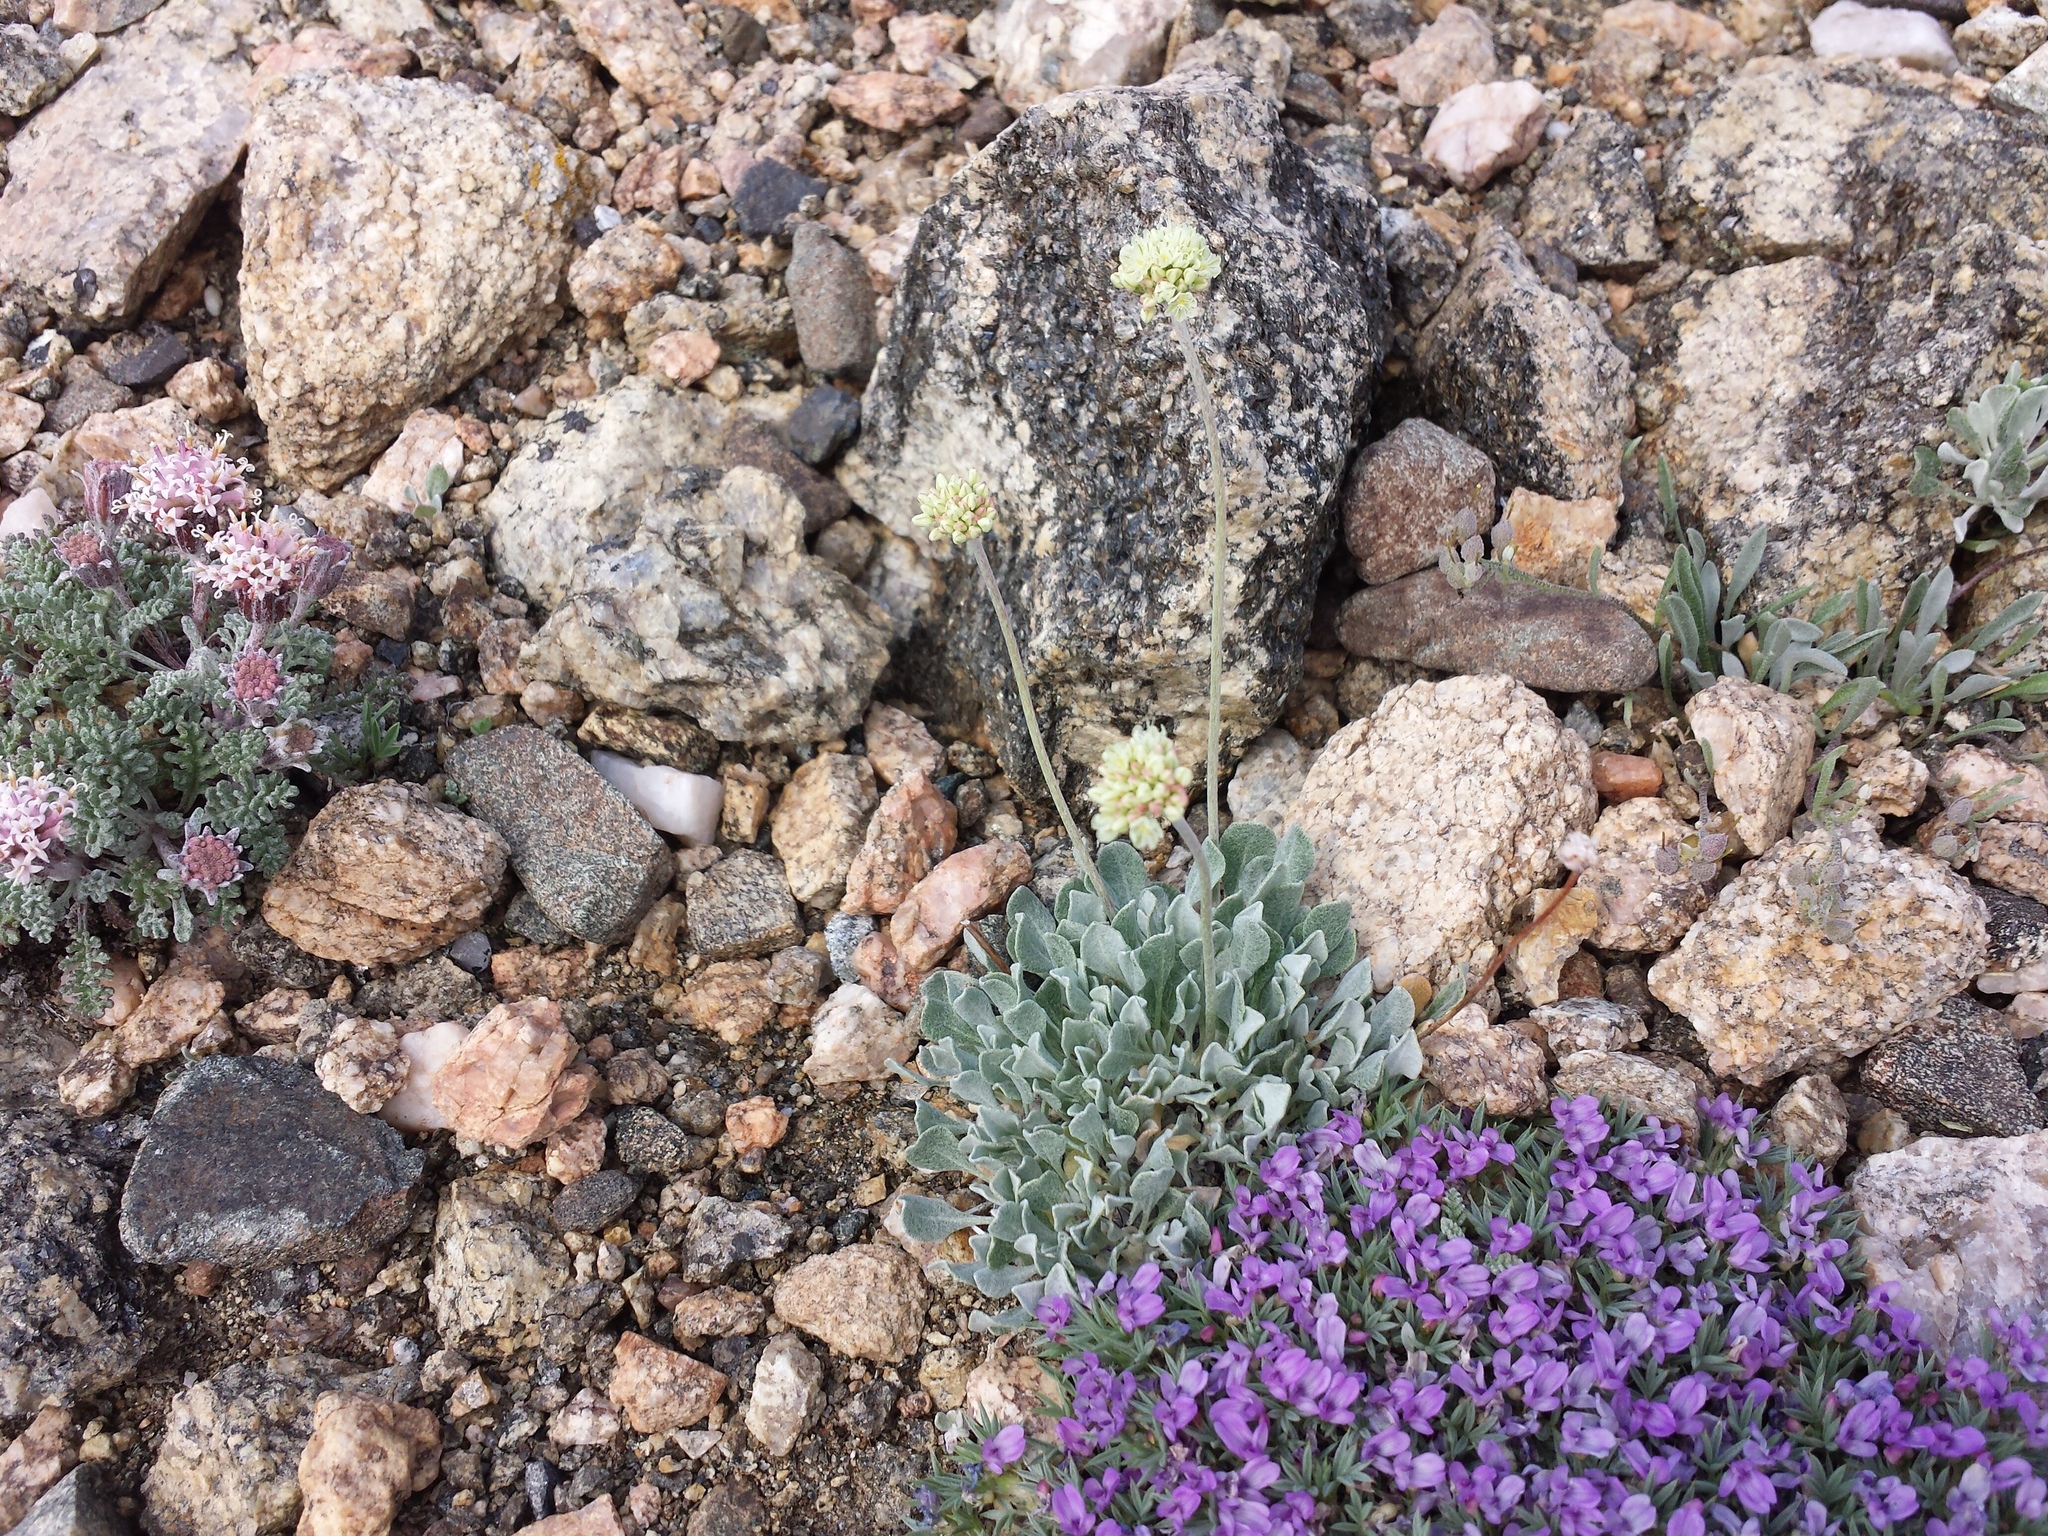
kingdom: Plantae
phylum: Tracheophyta
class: Magnoliopsida
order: Caryophyllales
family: Polygonaceae
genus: Eriogonum
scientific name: Eriogonum ovalifolium
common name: Cushion buckwheat
